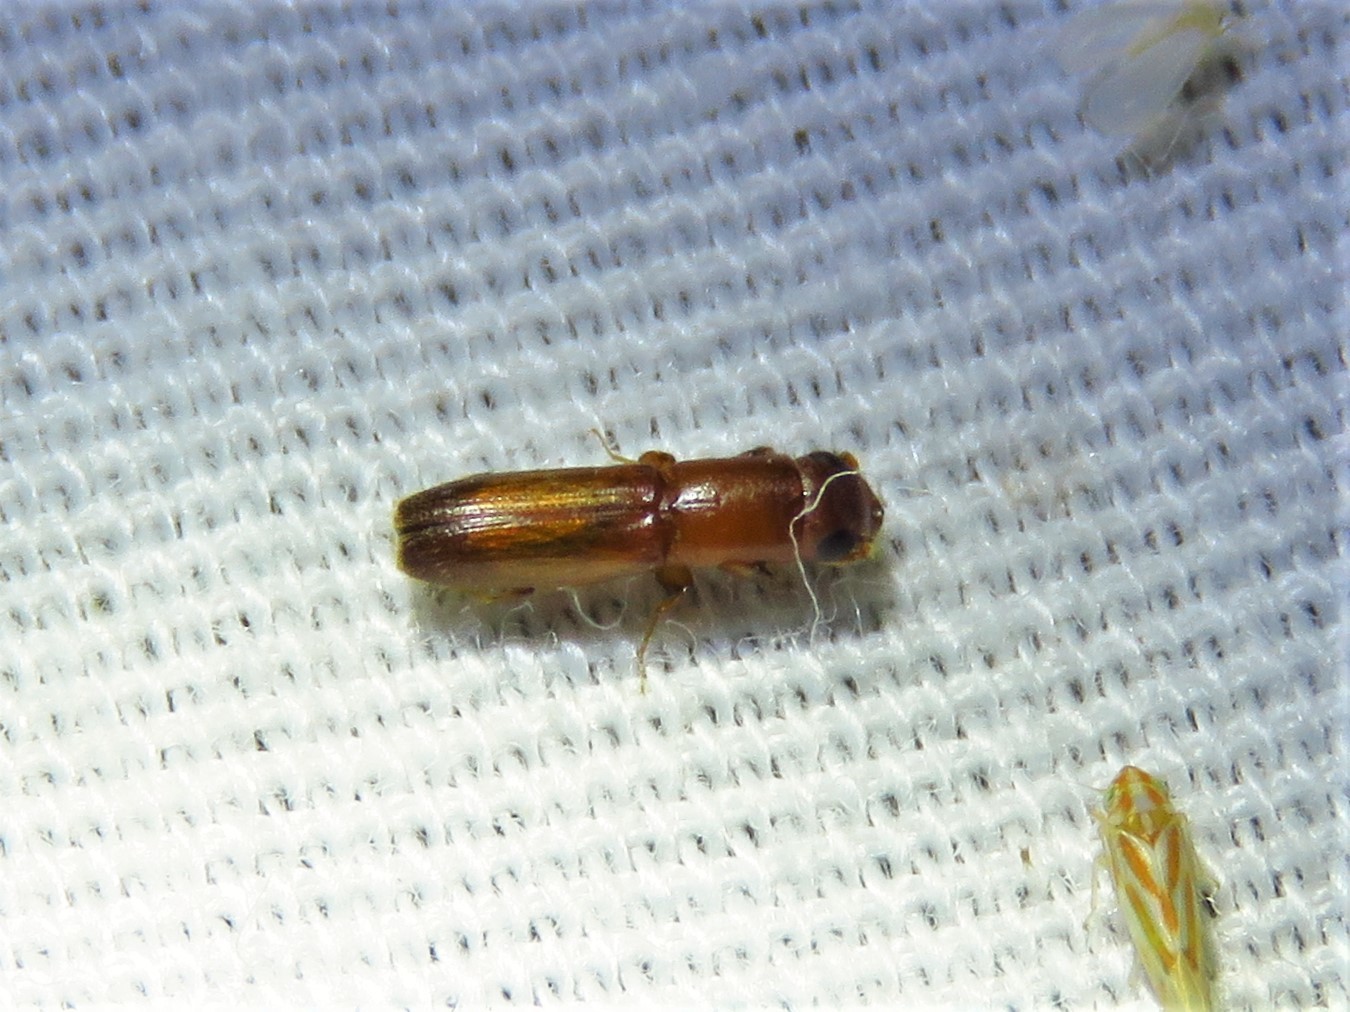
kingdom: Animalia
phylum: Arthropoda
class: Insecta
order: Coleoptera
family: Curculionidae
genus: Euplatypus
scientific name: Euplatypus compositus
